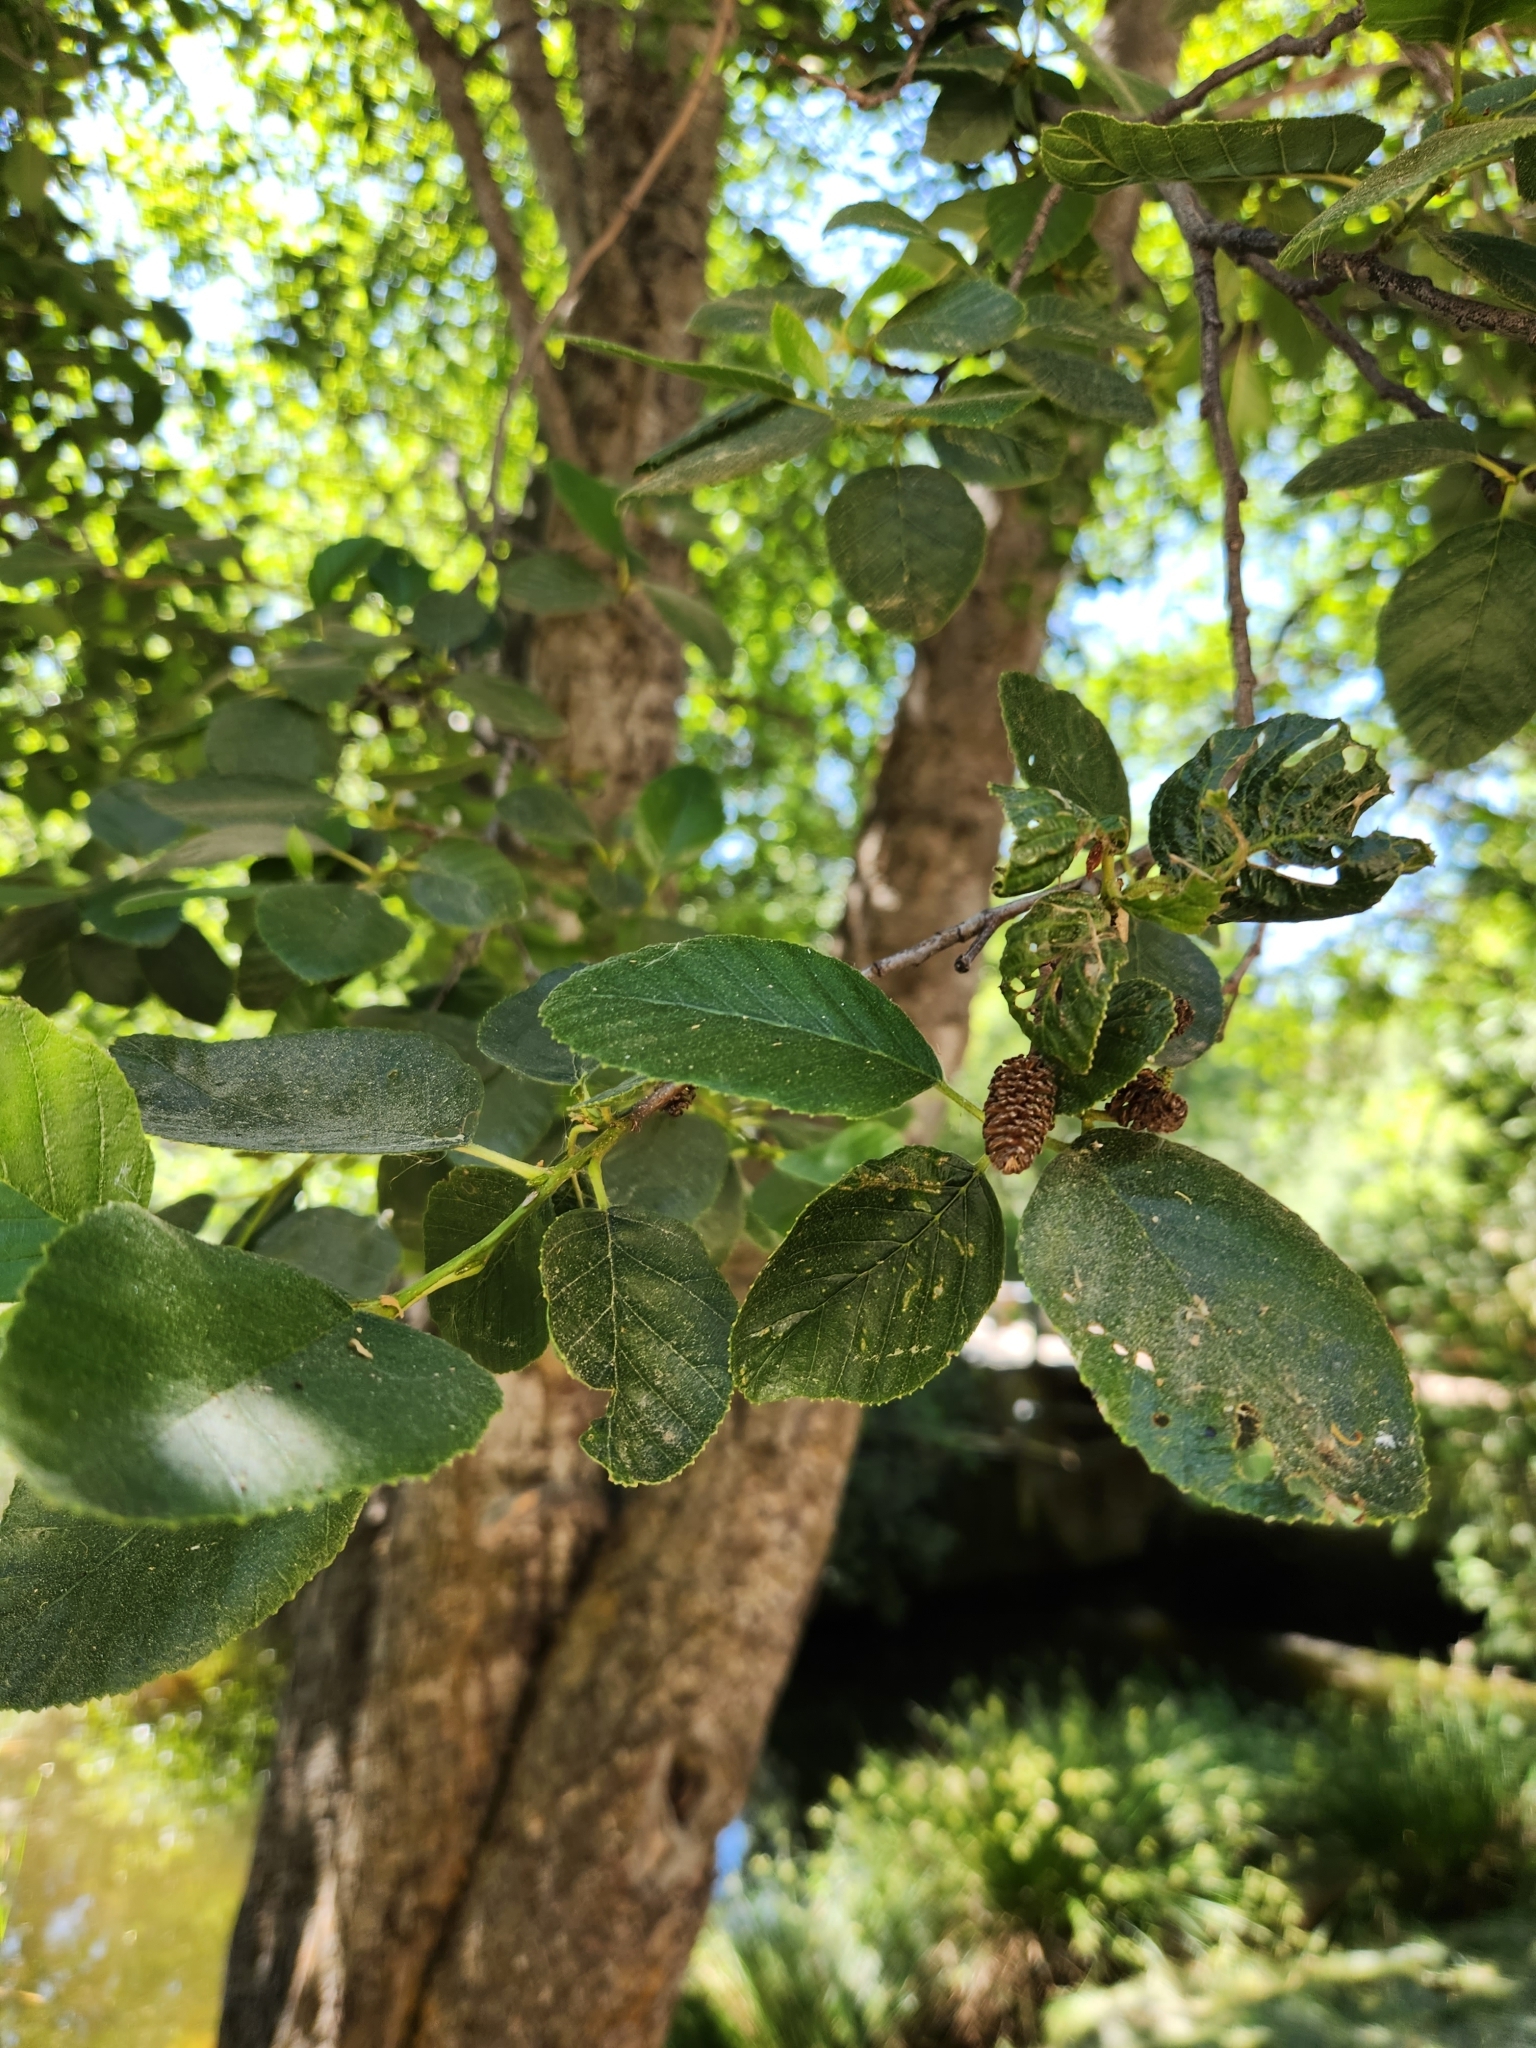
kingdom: Plantae
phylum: Tracheophyta
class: Magnoliopsida
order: Fagales
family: Betulaceae
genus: Alnus
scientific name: Alnus rhombifolia
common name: California alder
